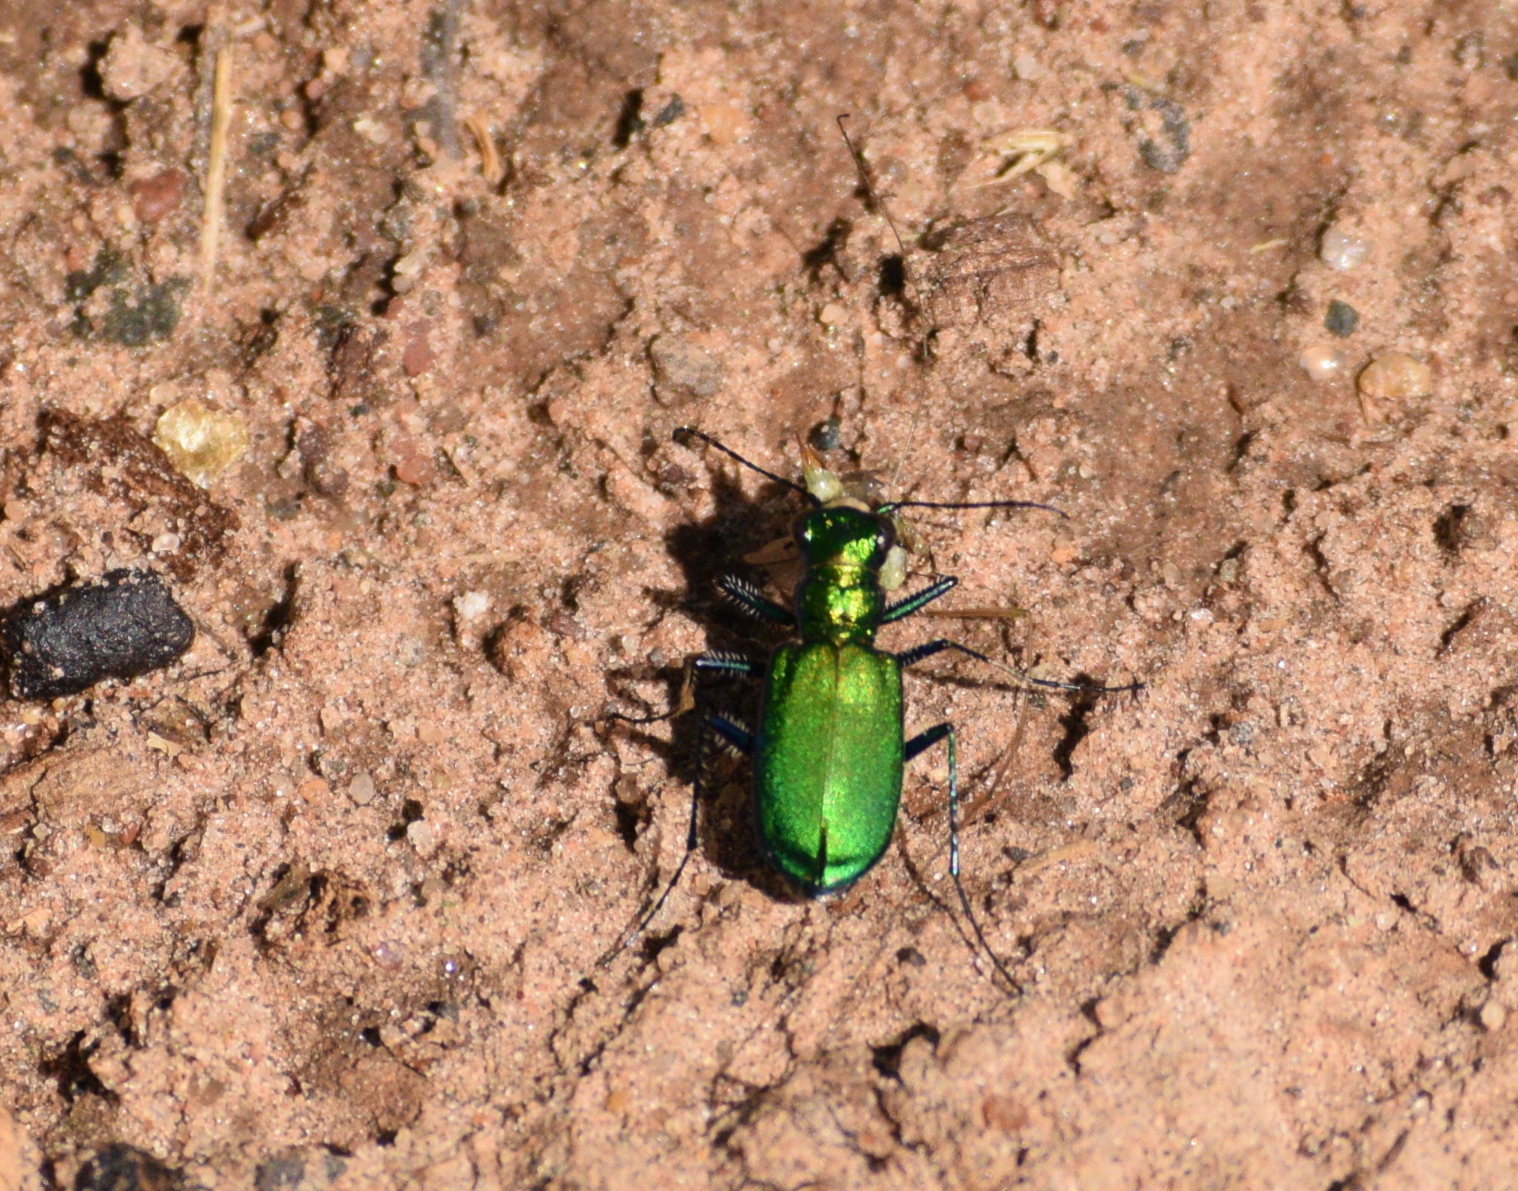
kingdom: Animalia
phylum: Arthropoda
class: Insecta
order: Coleoptera
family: Carabidae
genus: Cicindela
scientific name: Cicindela sexguttata
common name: Six-spotted tiger beetle
